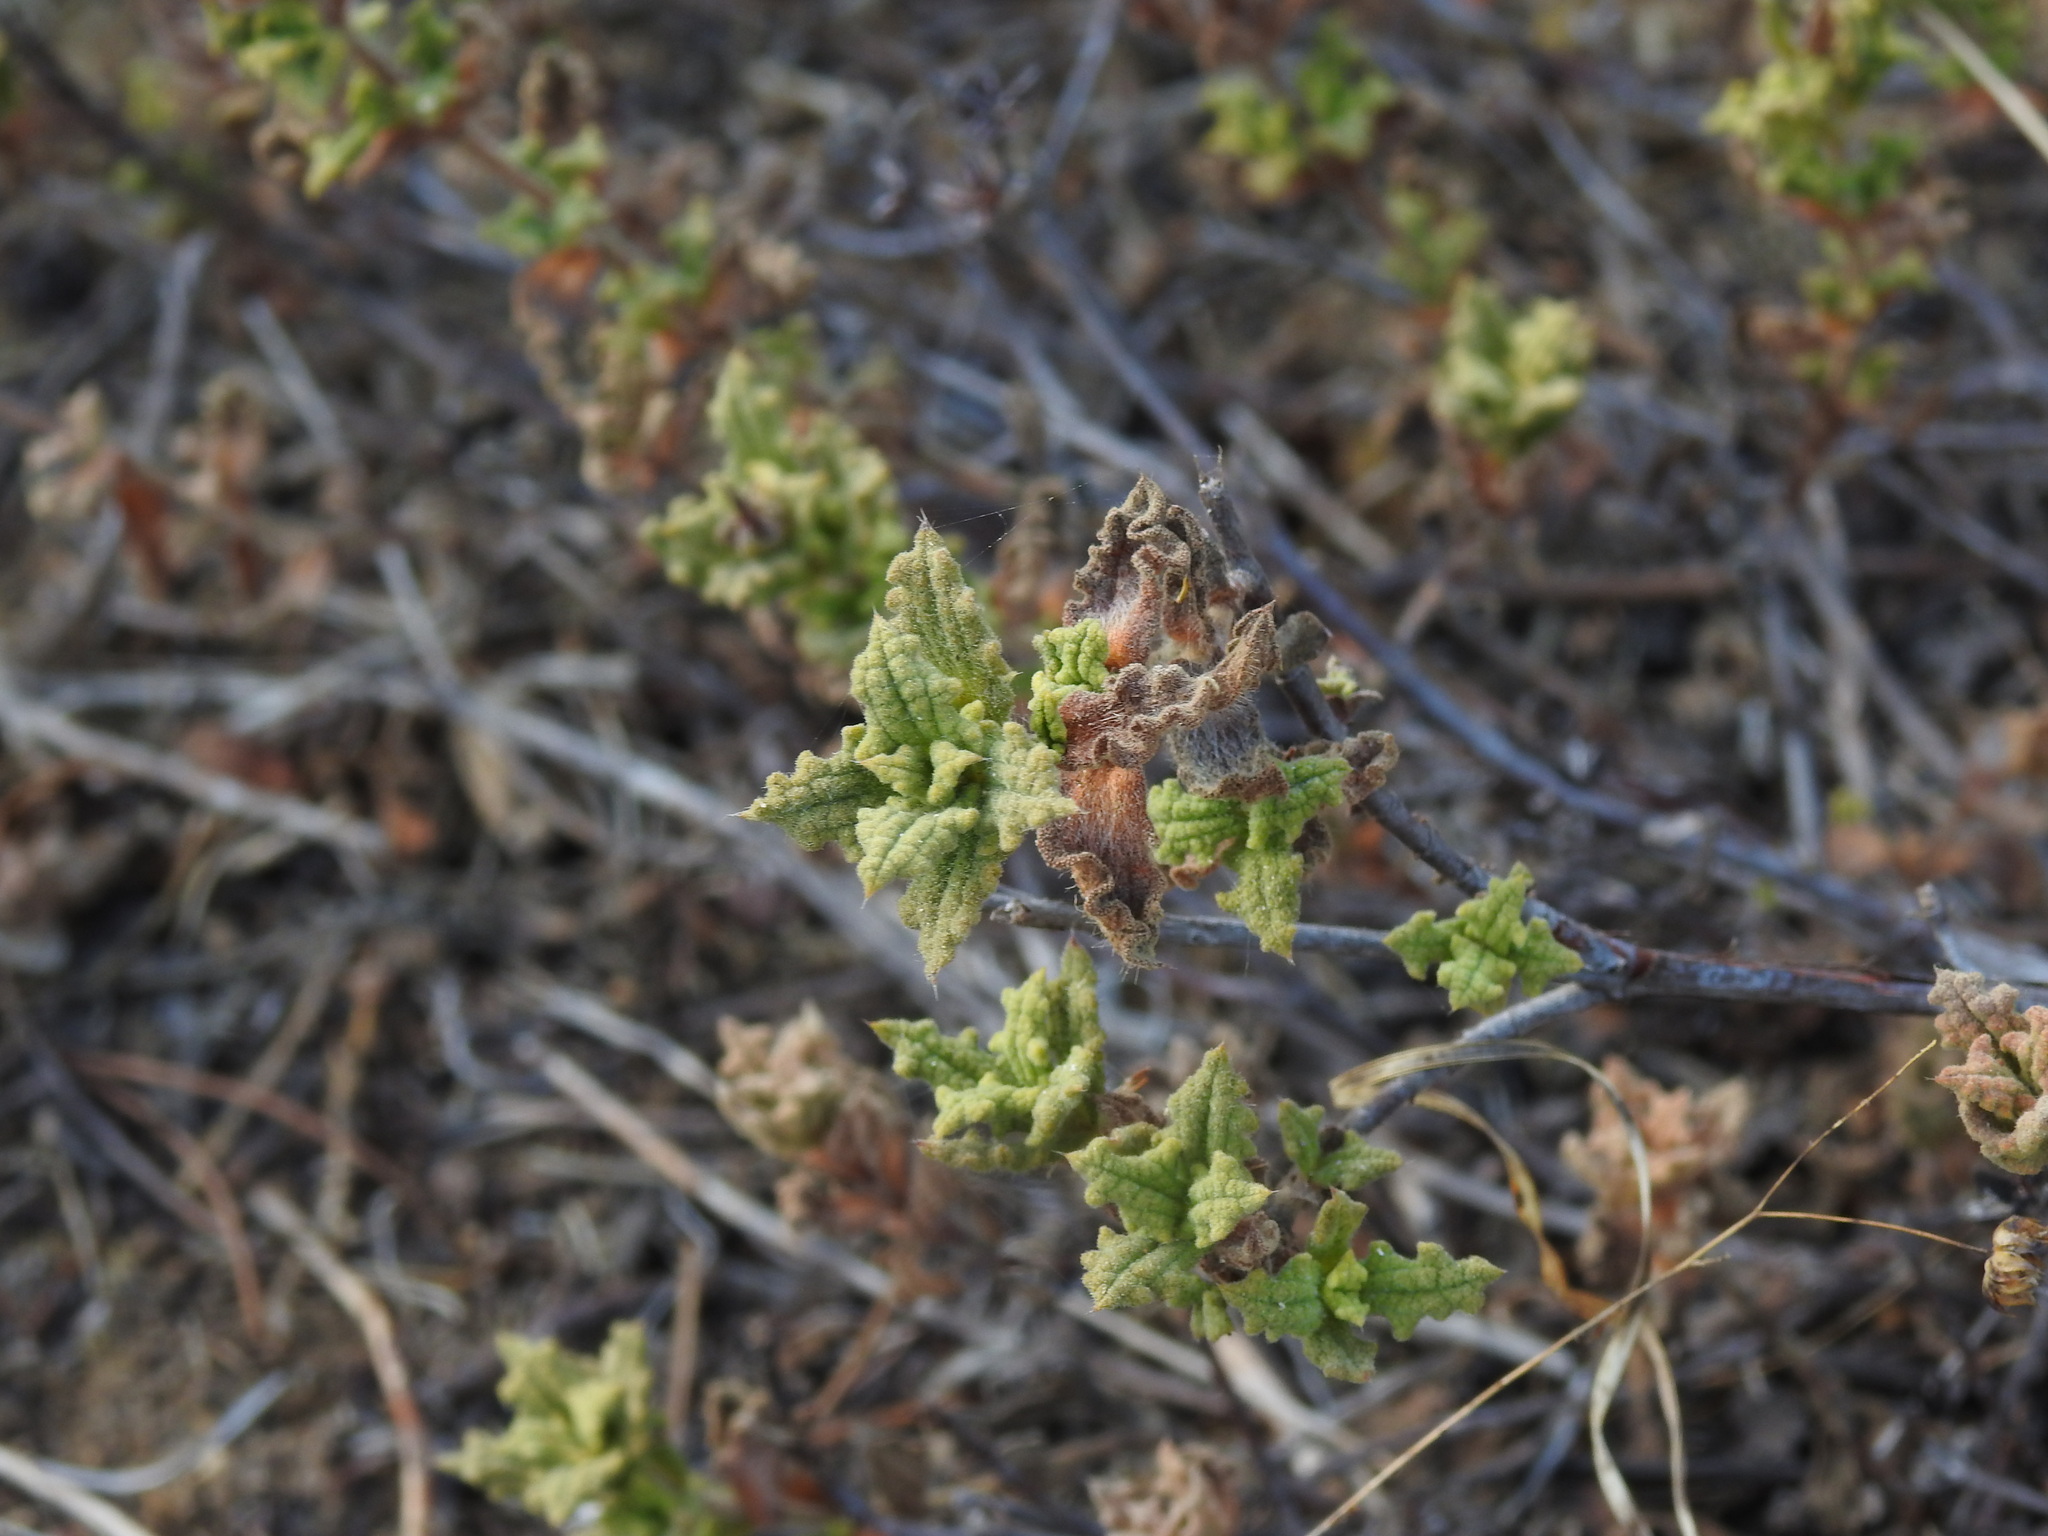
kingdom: Plantae
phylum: Tracheophyta
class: Magnoliopsida
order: Malvales
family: Cistaceae
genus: Cistus
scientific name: Cistus crispus
